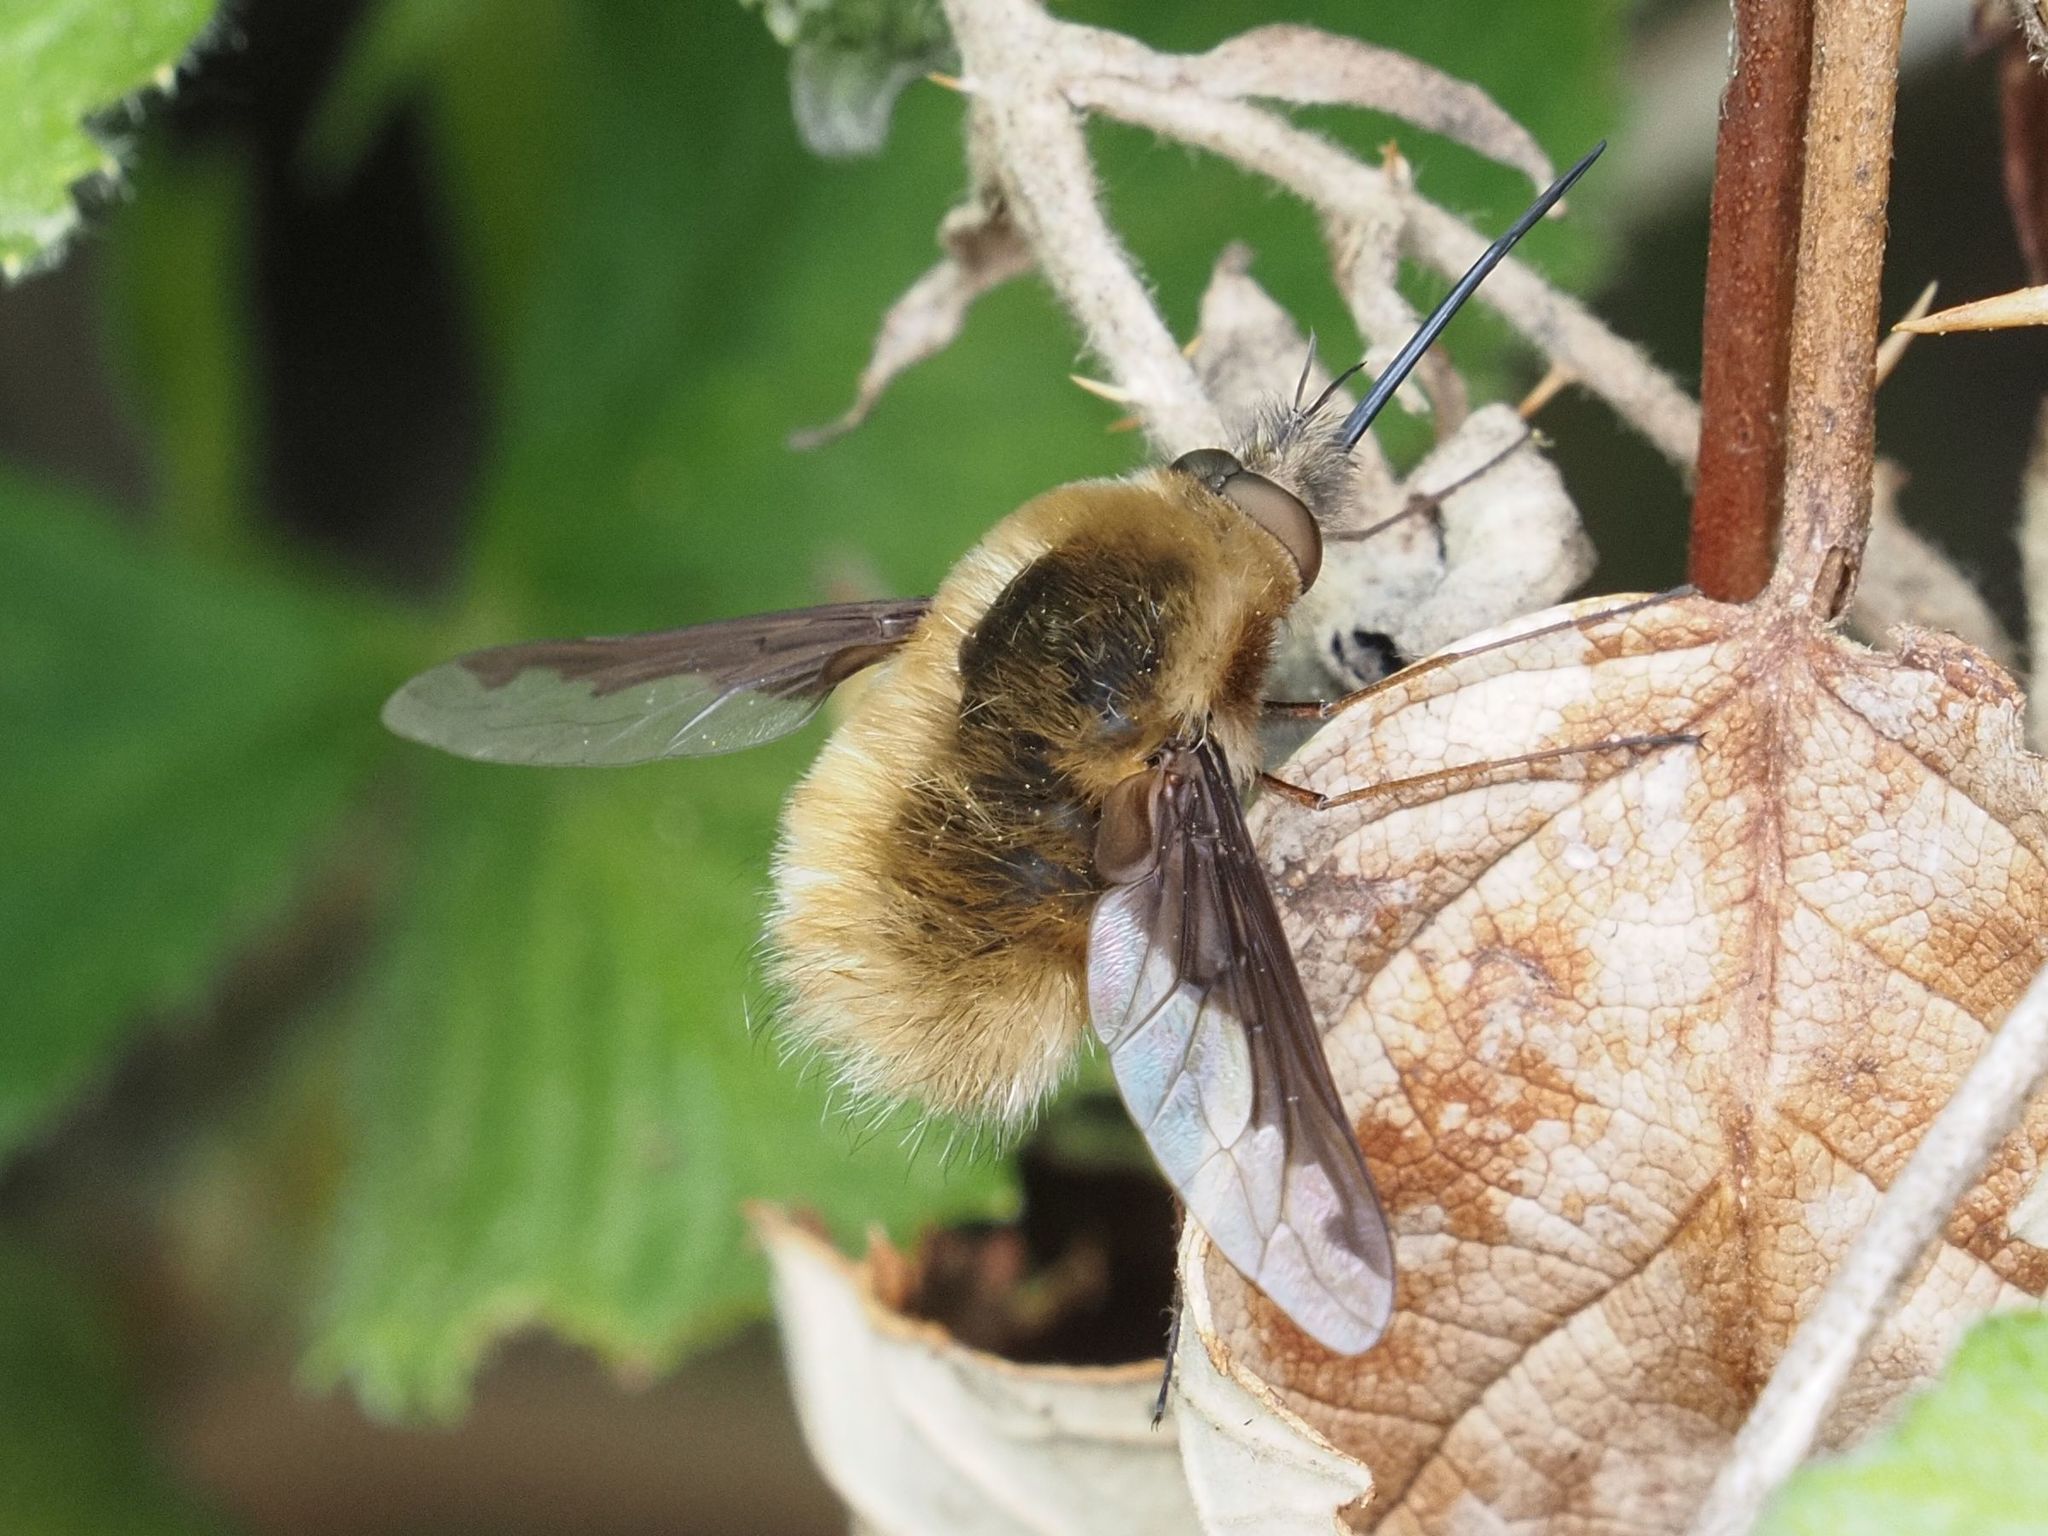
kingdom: Animalia
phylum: Arthropoda
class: Insecta
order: Diptera
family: Bombyliidae
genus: Bombylius
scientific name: Bombylius major
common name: Bee fly
